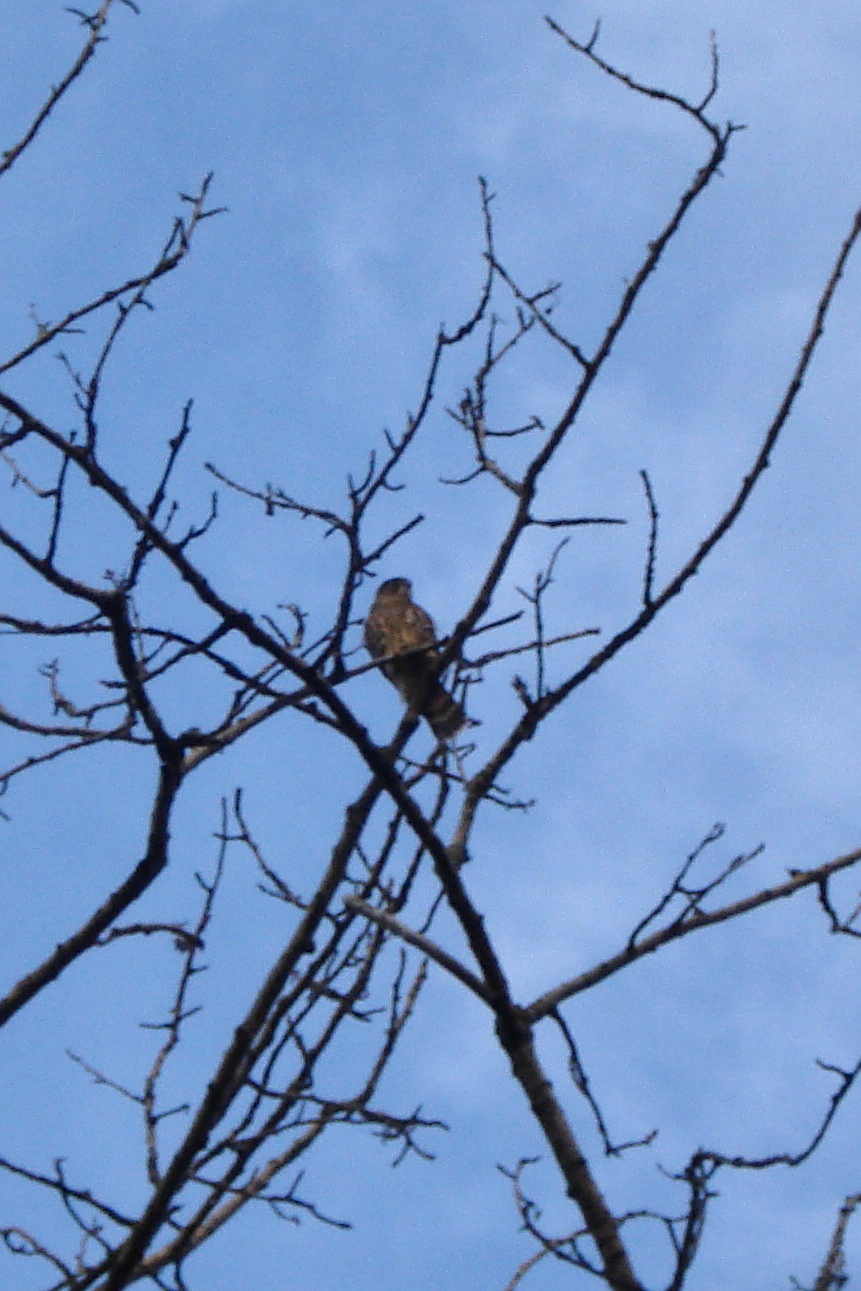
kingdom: Animalia
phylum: Chordata
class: Aves
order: Falconiformes
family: Falconidae
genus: Falco
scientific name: Falco columbarius
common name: Merlin
